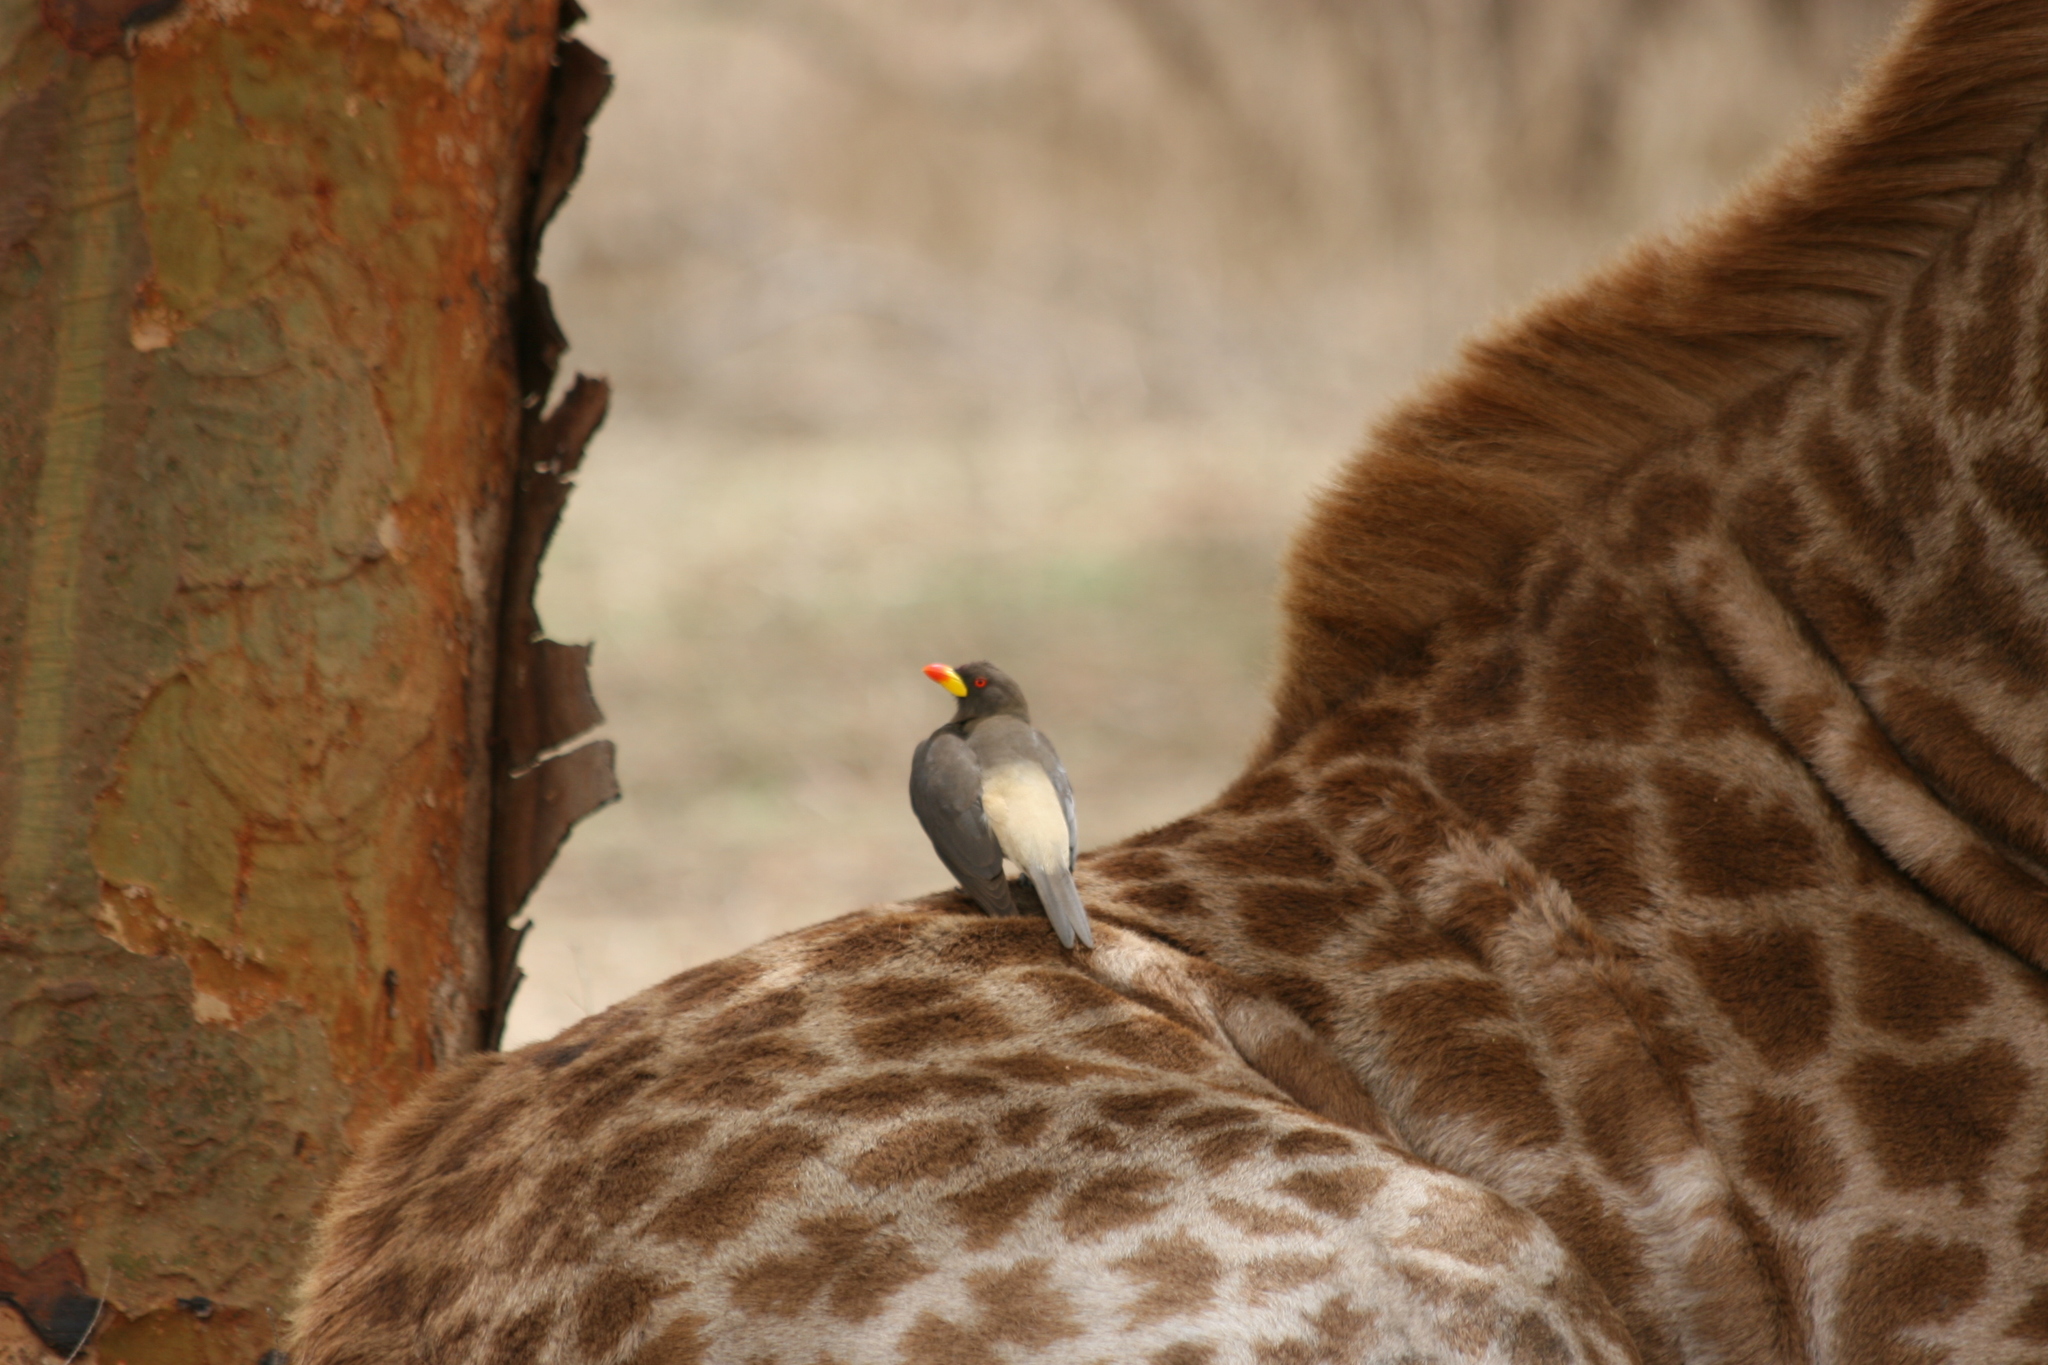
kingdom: Animalia
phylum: Chordata
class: Aves
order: Passeriformes
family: Buphagidae
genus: Buphagus
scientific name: Buphagus africanus
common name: Yellow-billed oxpecker
